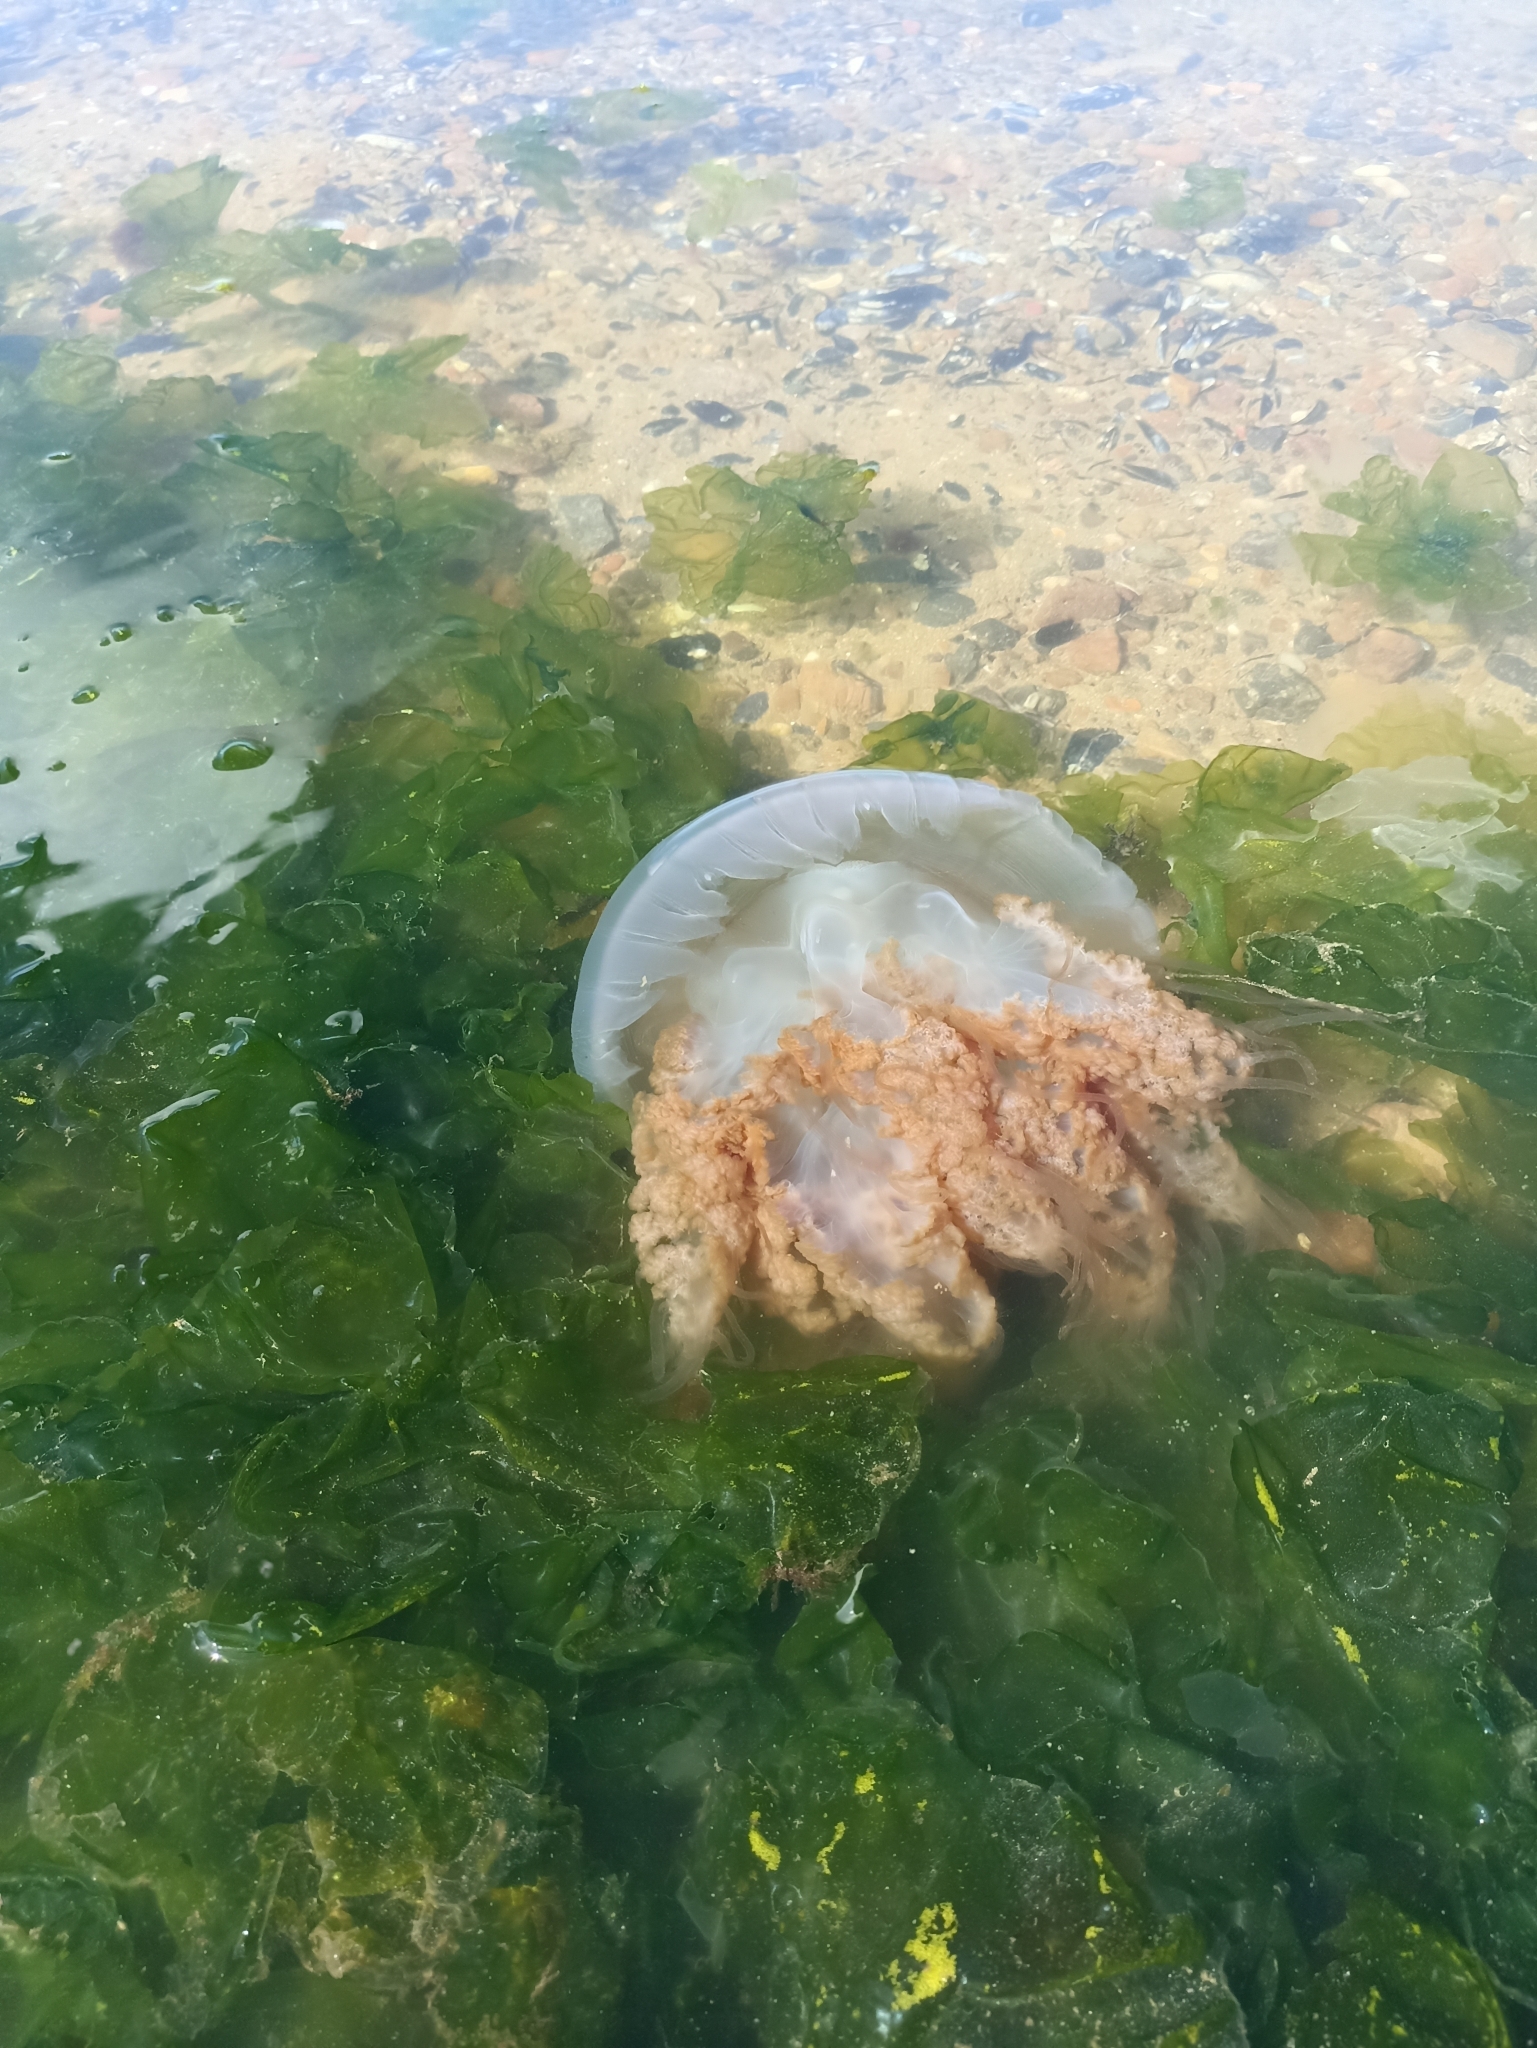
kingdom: Animalia
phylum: Cnidaria
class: Scyphozoa
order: Rhizostomeae
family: Lychnorhizidae
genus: Lychnorhiza
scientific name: Lychnorhiza lucerna
